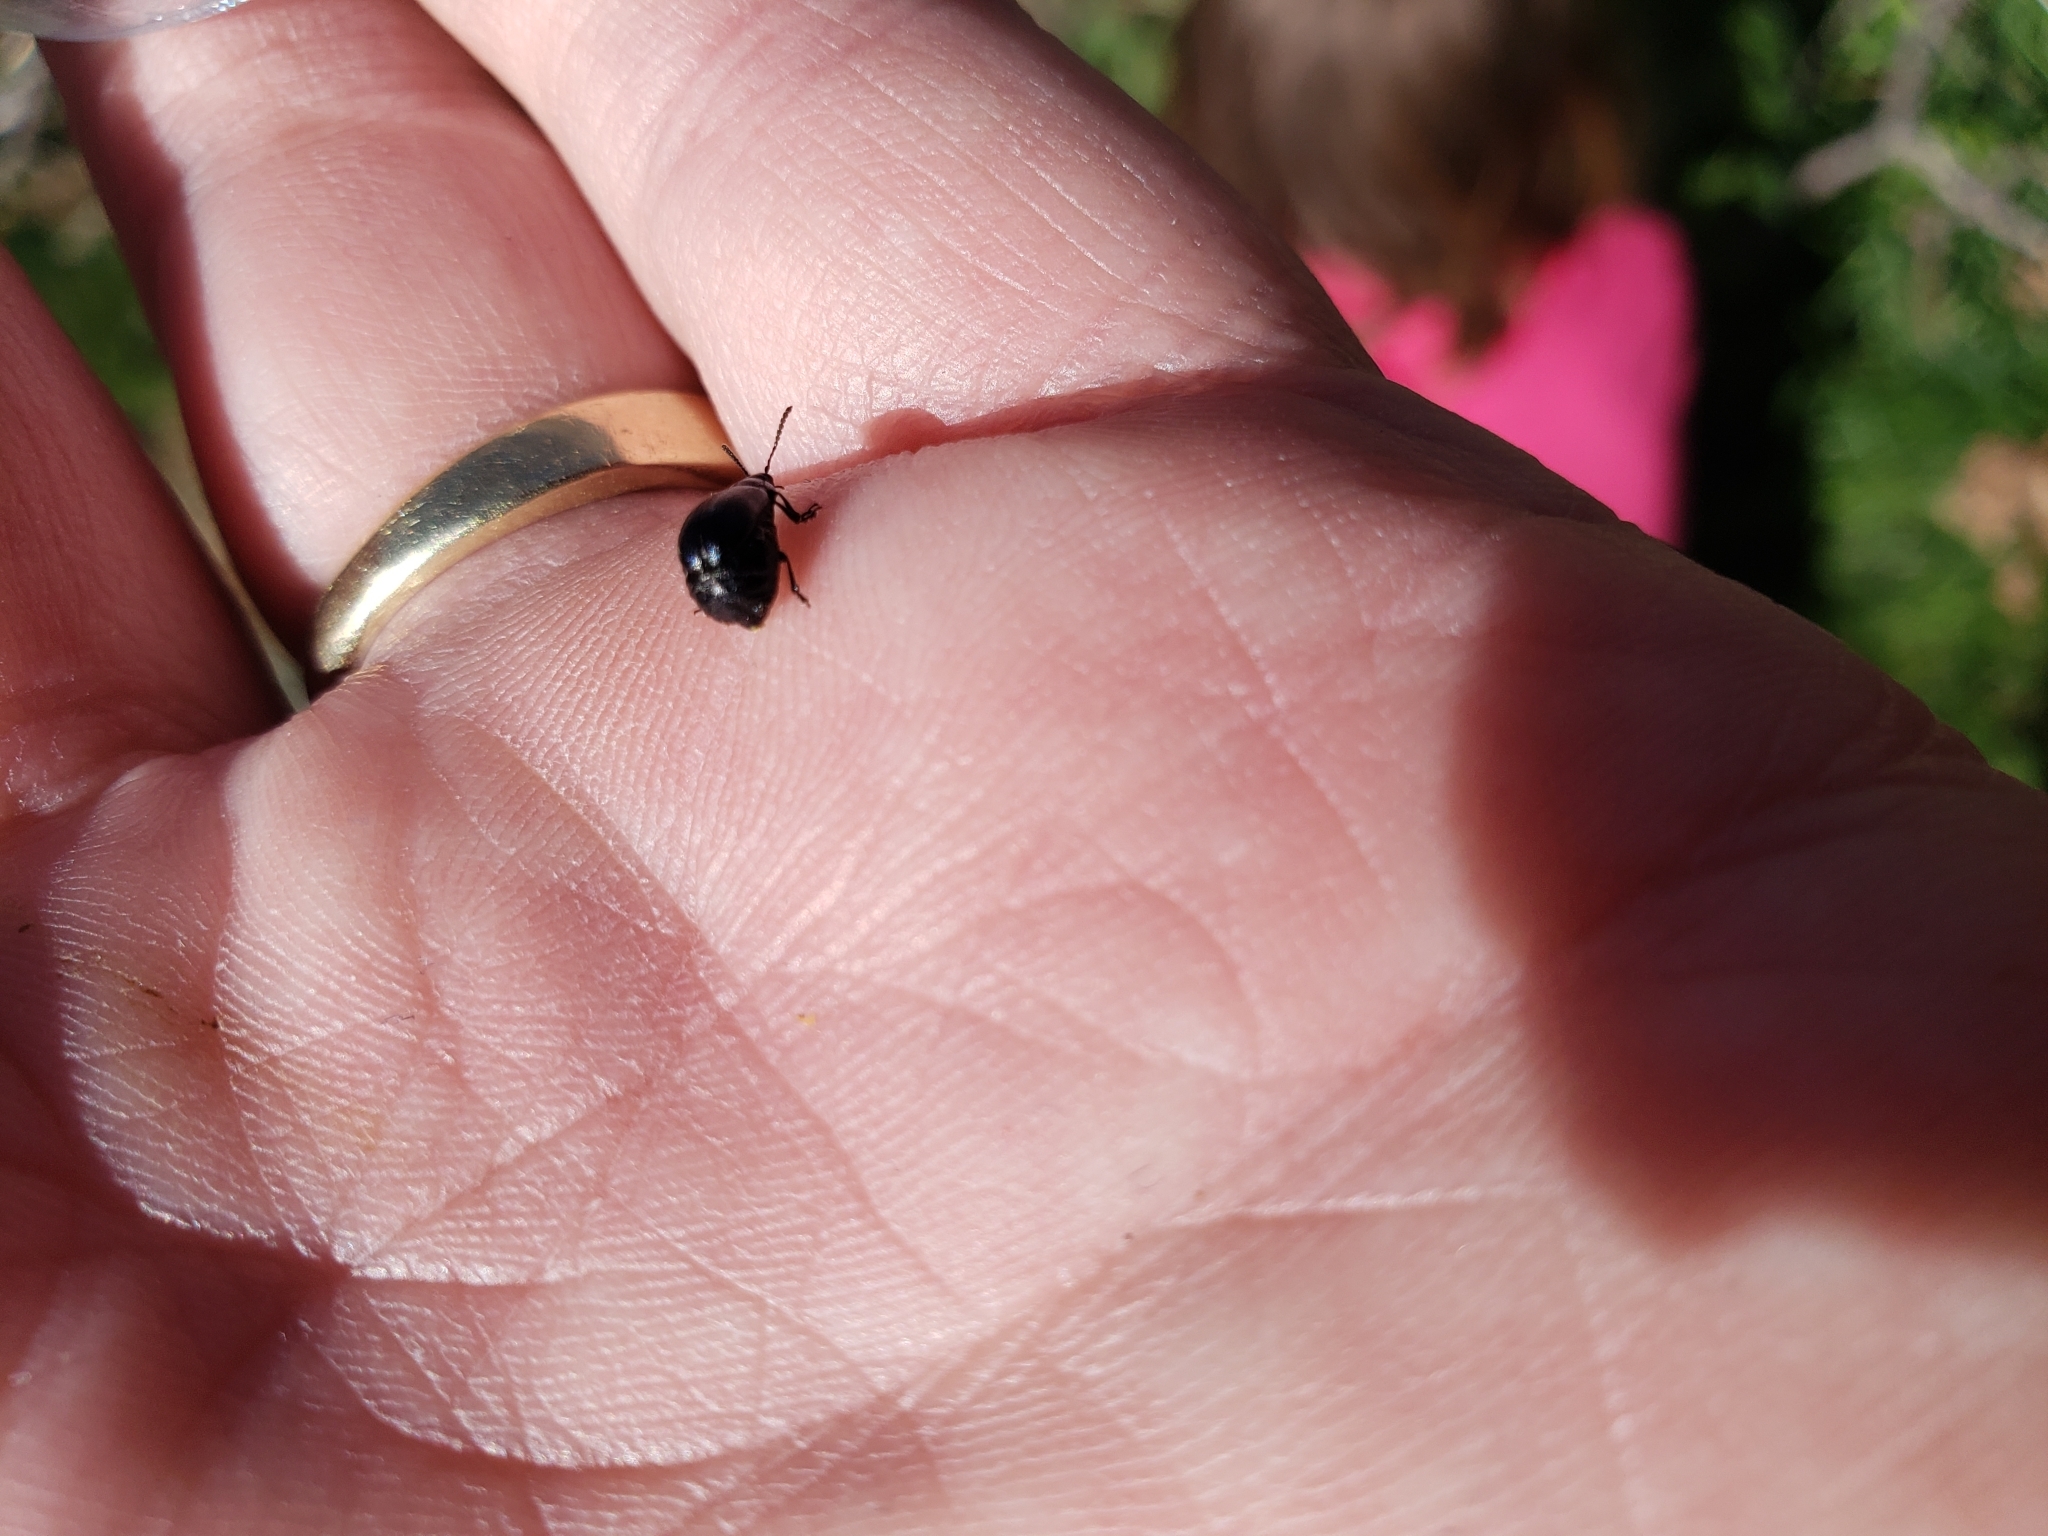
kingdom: Animalia
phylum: Arthropoda
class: Insecta
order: Coleoptera
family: Chrysomelidae
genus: Gastrophysa
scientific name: Gastrophysa cyanea
